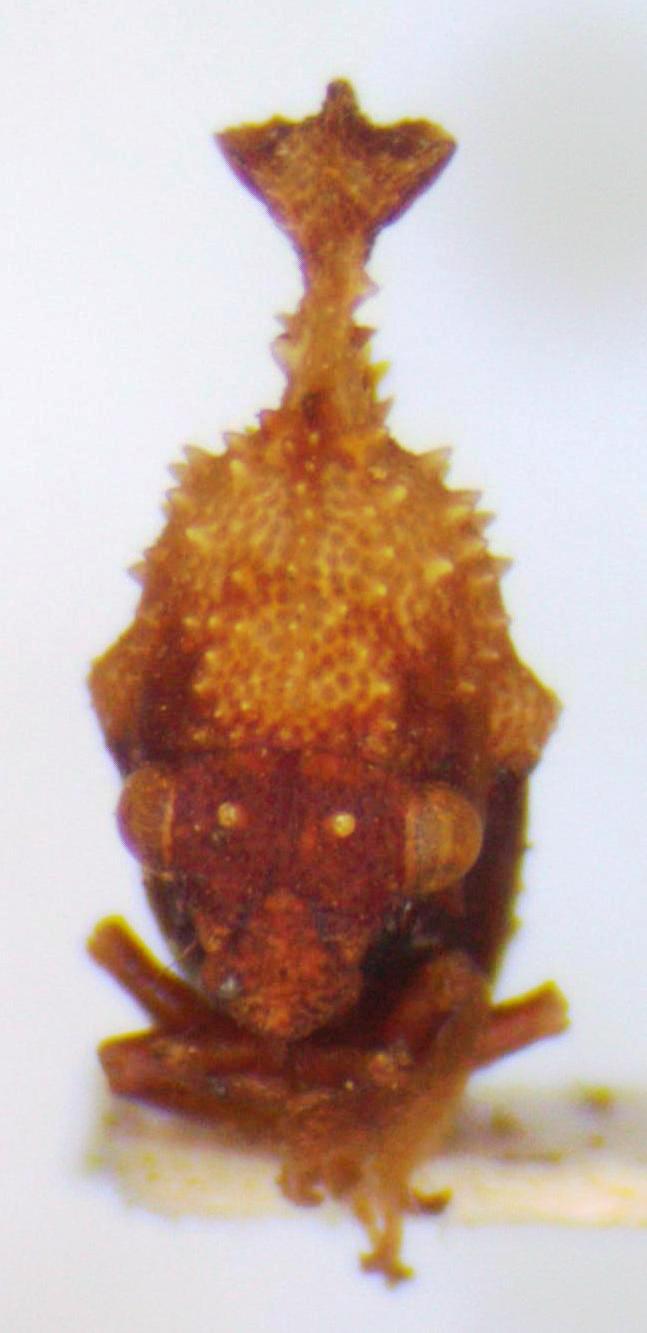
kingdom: Animalia
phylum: Arthropoda
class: Insecta
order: Hemiptera
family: Membracidae
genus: Hypsoprora
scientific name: Hypsoprora coronata
